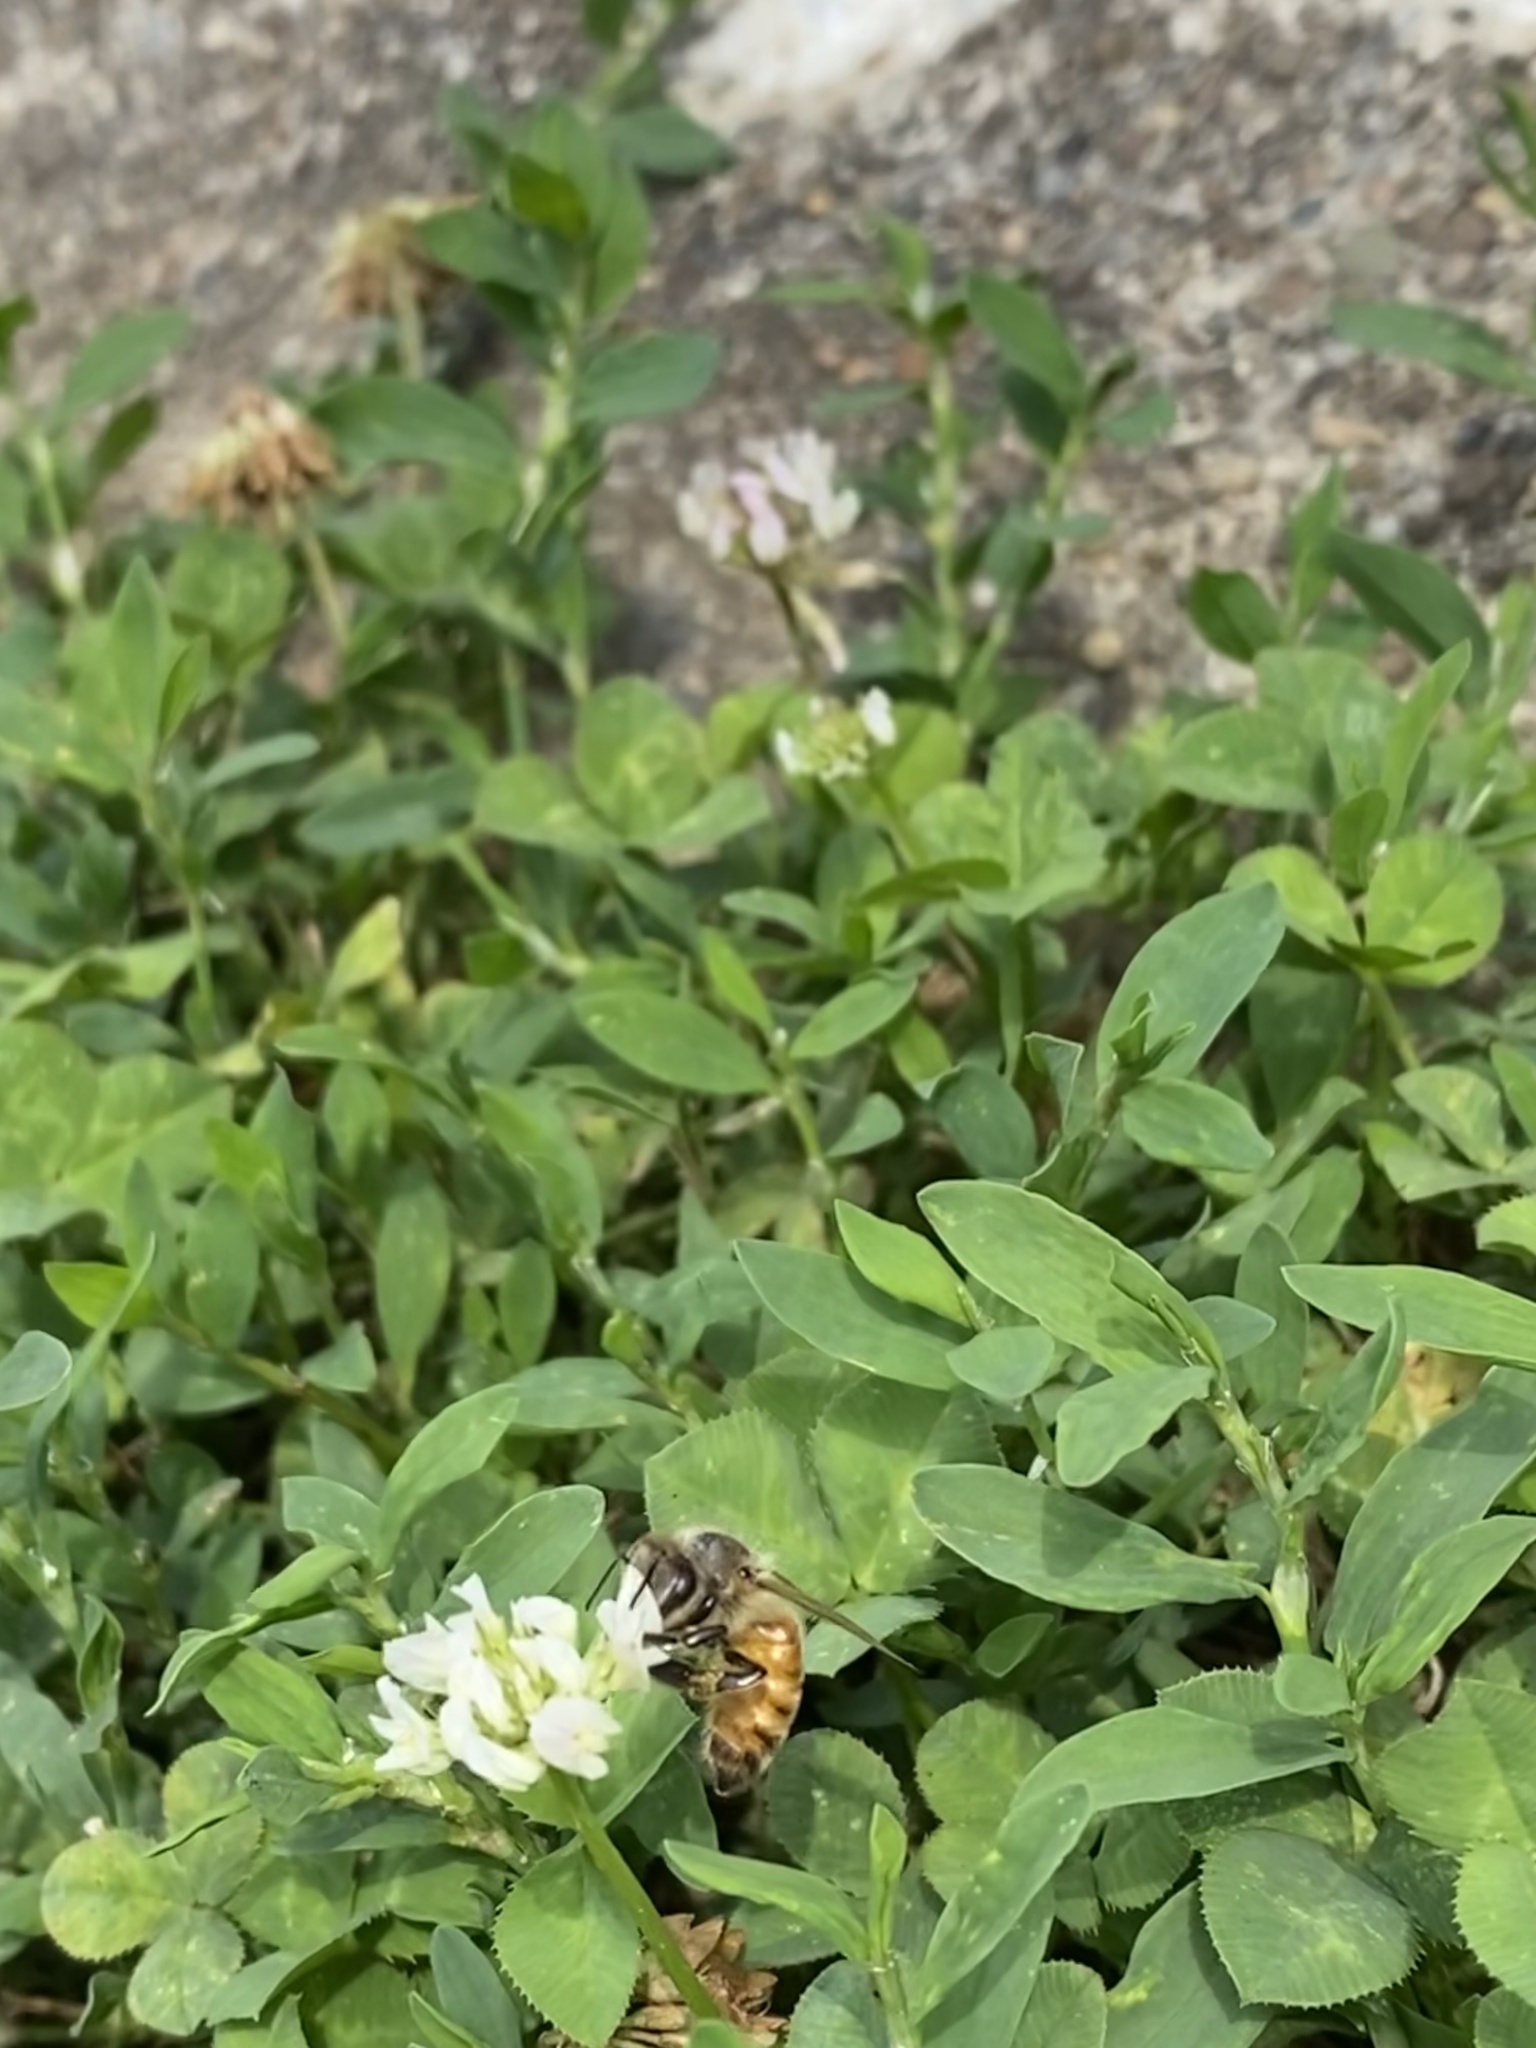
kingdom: Animalia
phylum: Arthropoda
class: Insecta
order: Hymenoptera
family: Apidae
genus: Apis
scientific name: Apis mellifera
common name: Honey bee
